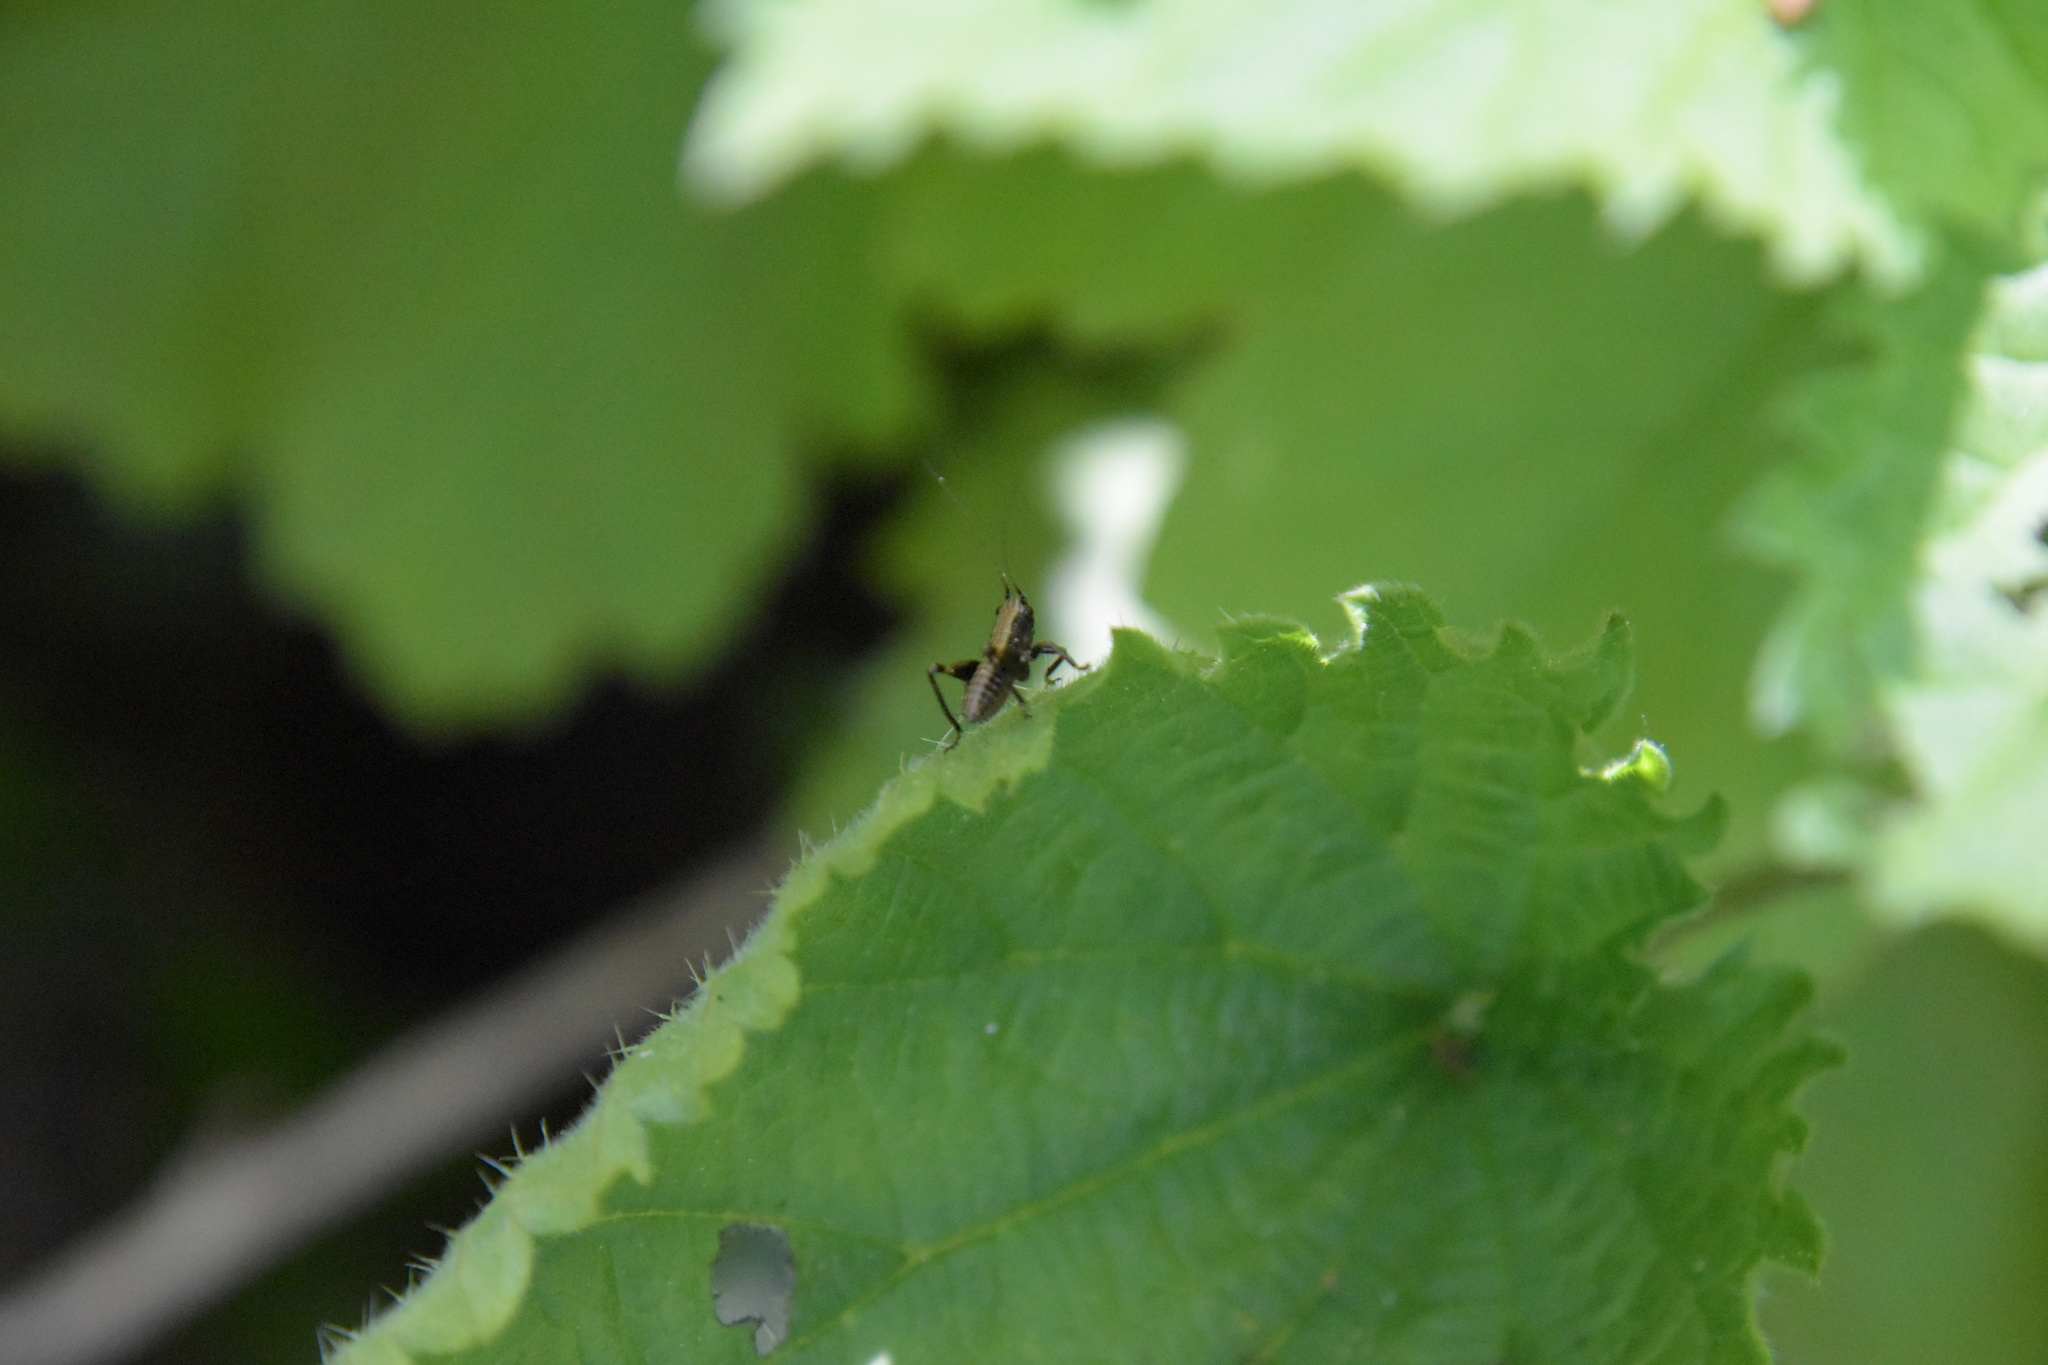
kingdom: Animalia
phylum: Arthropoda
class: Insecta
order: Orthoptera
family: Tettigoniidae
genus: Pholidoptera
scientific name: Pholidoptera griseoaptera
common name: Dark bush-cricket
